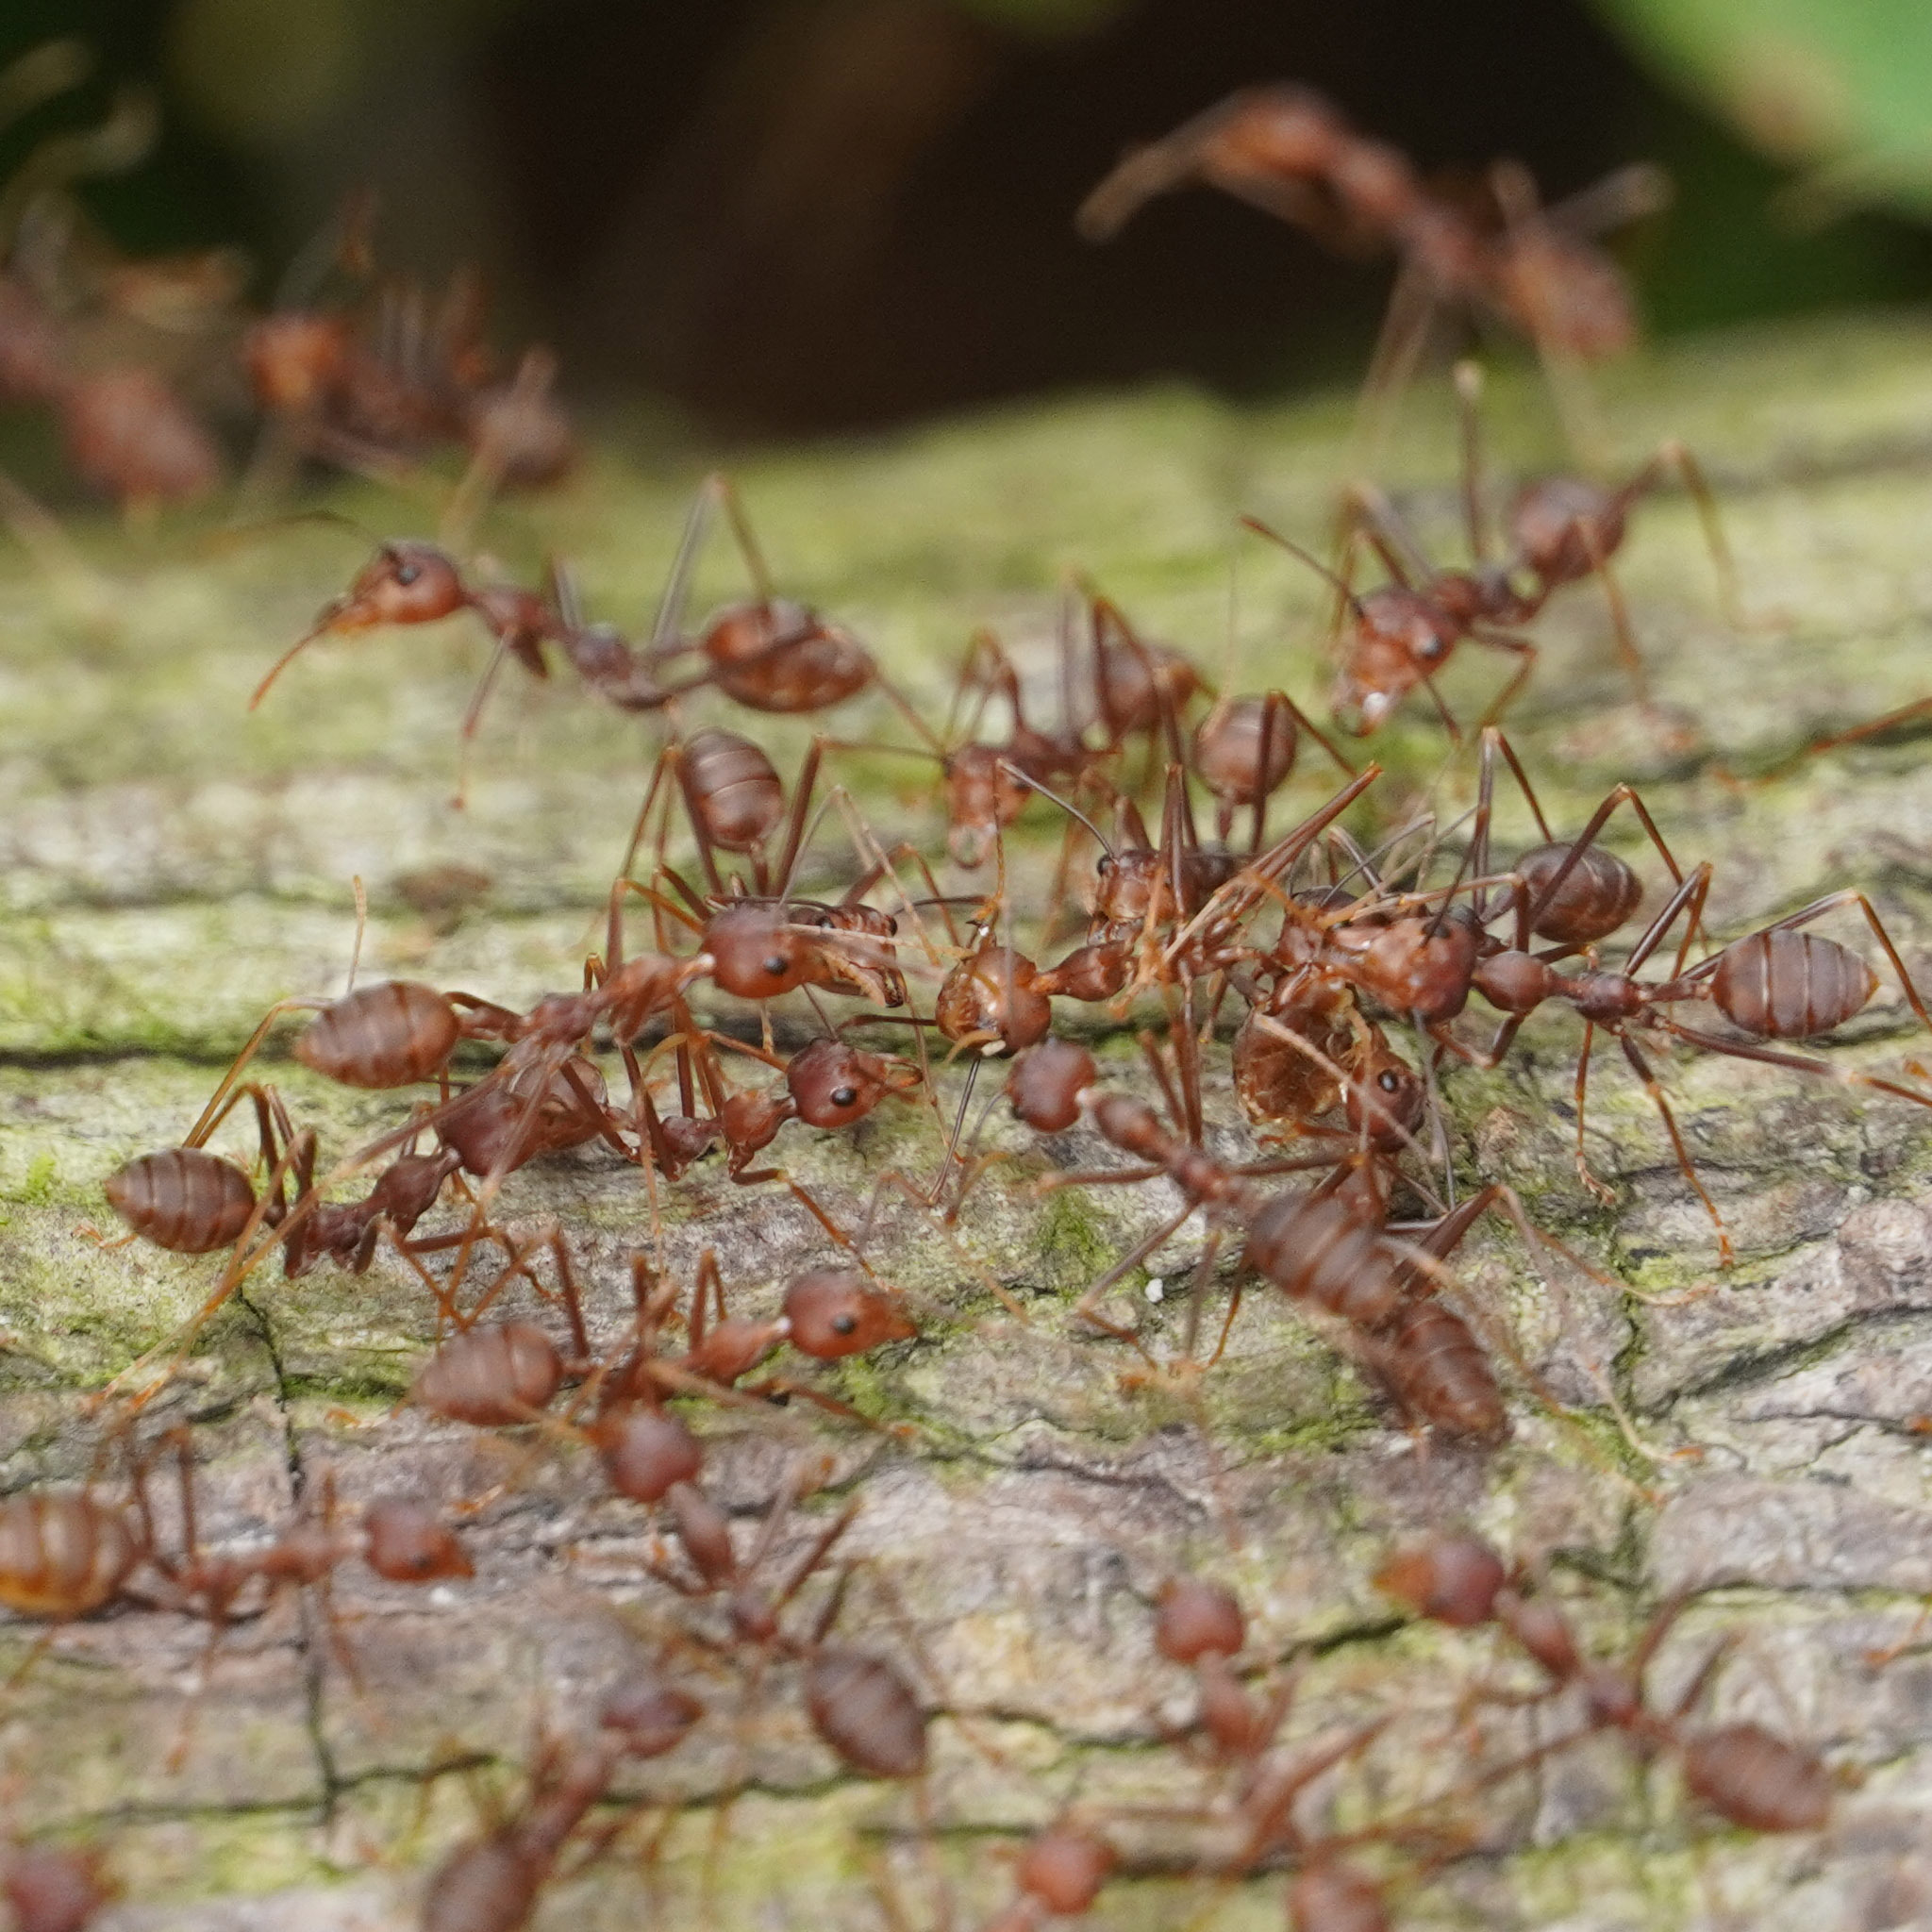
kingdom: Animalia
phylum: Arthropoda
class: Insecta
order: Hymenoptera
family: Formicidae
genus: Oecophylla
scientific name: Oecophylla smaragdina
